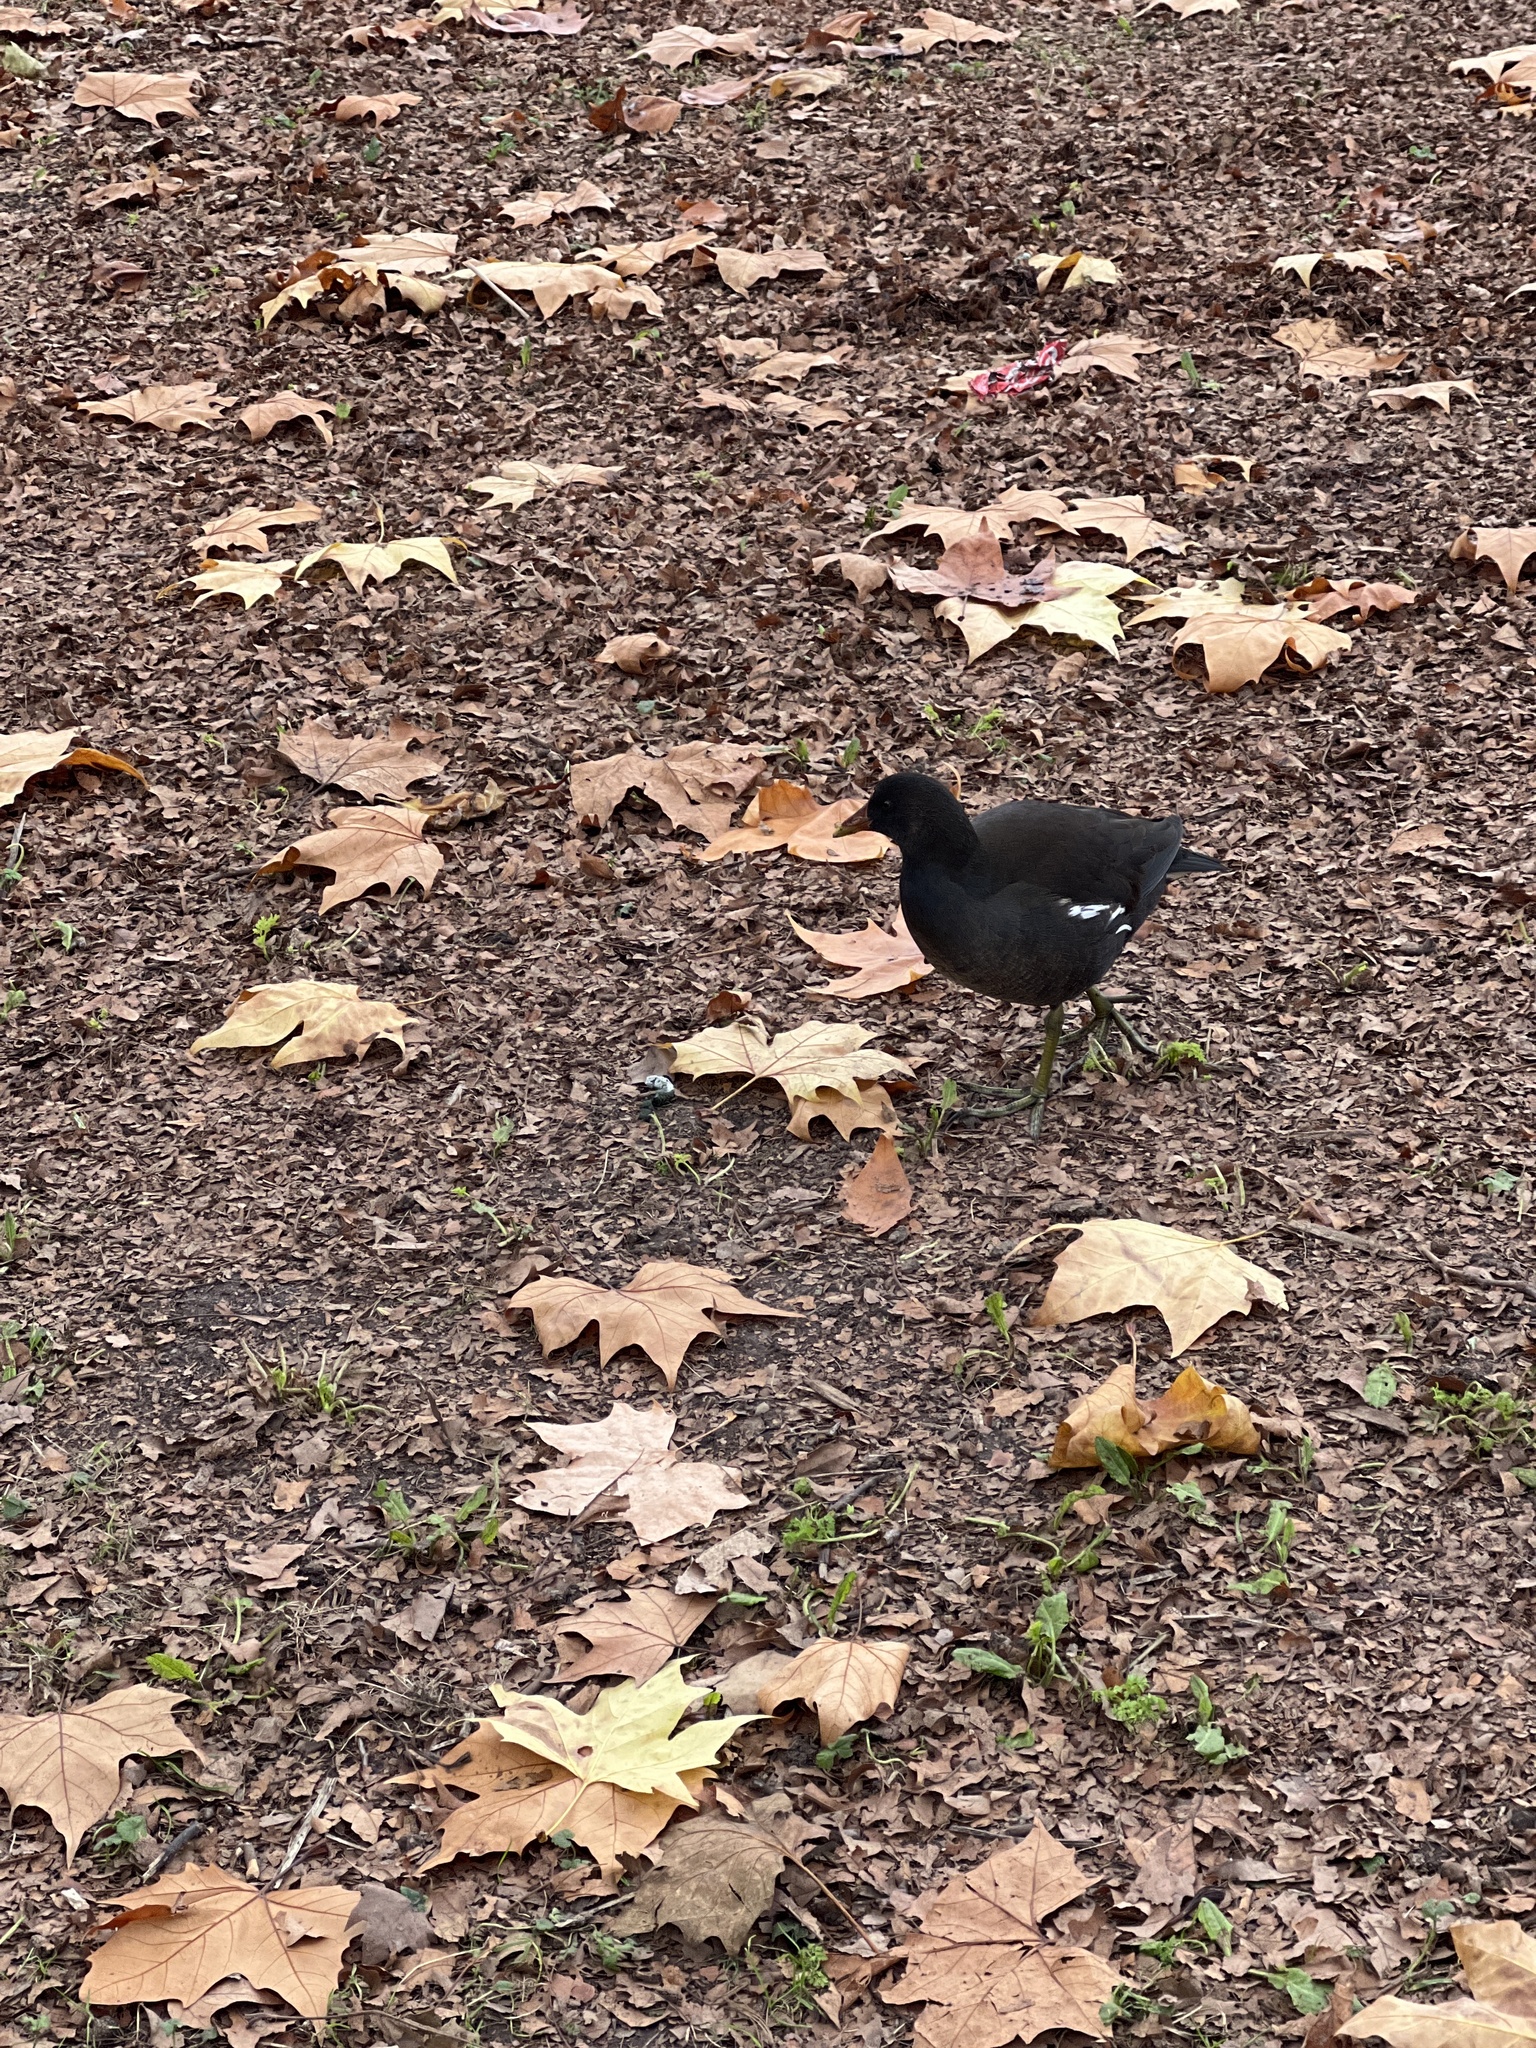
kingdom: Animalia
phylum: Chordata
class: Aves
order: Gruiformes
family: Rallidae
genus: Gallinula
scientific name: Gallinula chloropus
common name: Common moorhen
